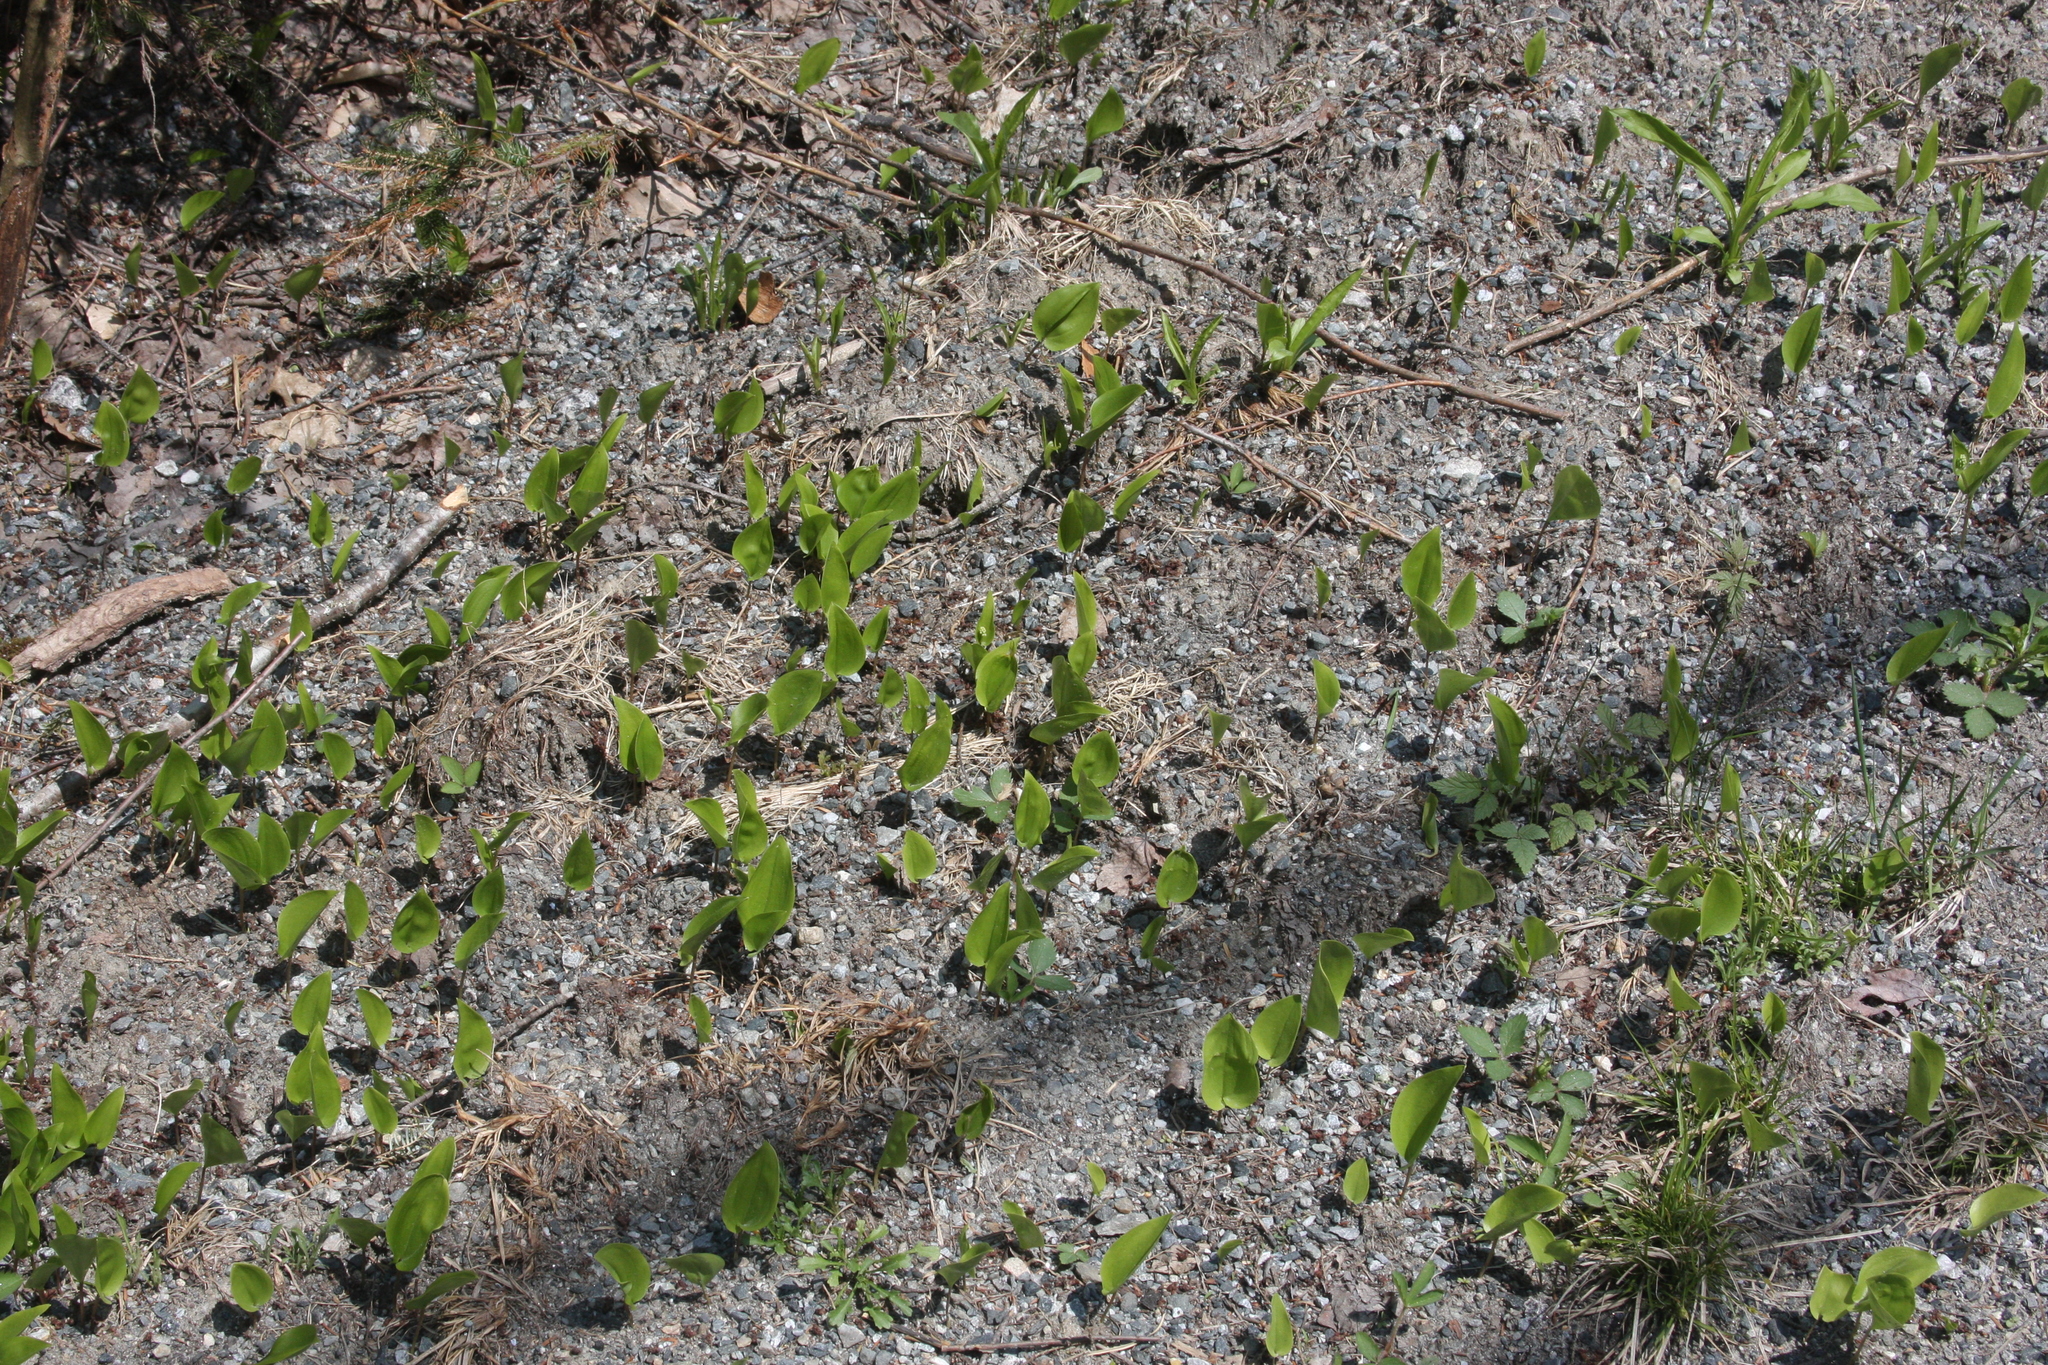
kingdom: Plantae
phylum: Tracheophyta
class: Liliopsida
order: Asparagales
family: Asparagaceae
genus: Maianthemum
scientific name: Maianthemum canadense
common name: False lily-of-the-valley
